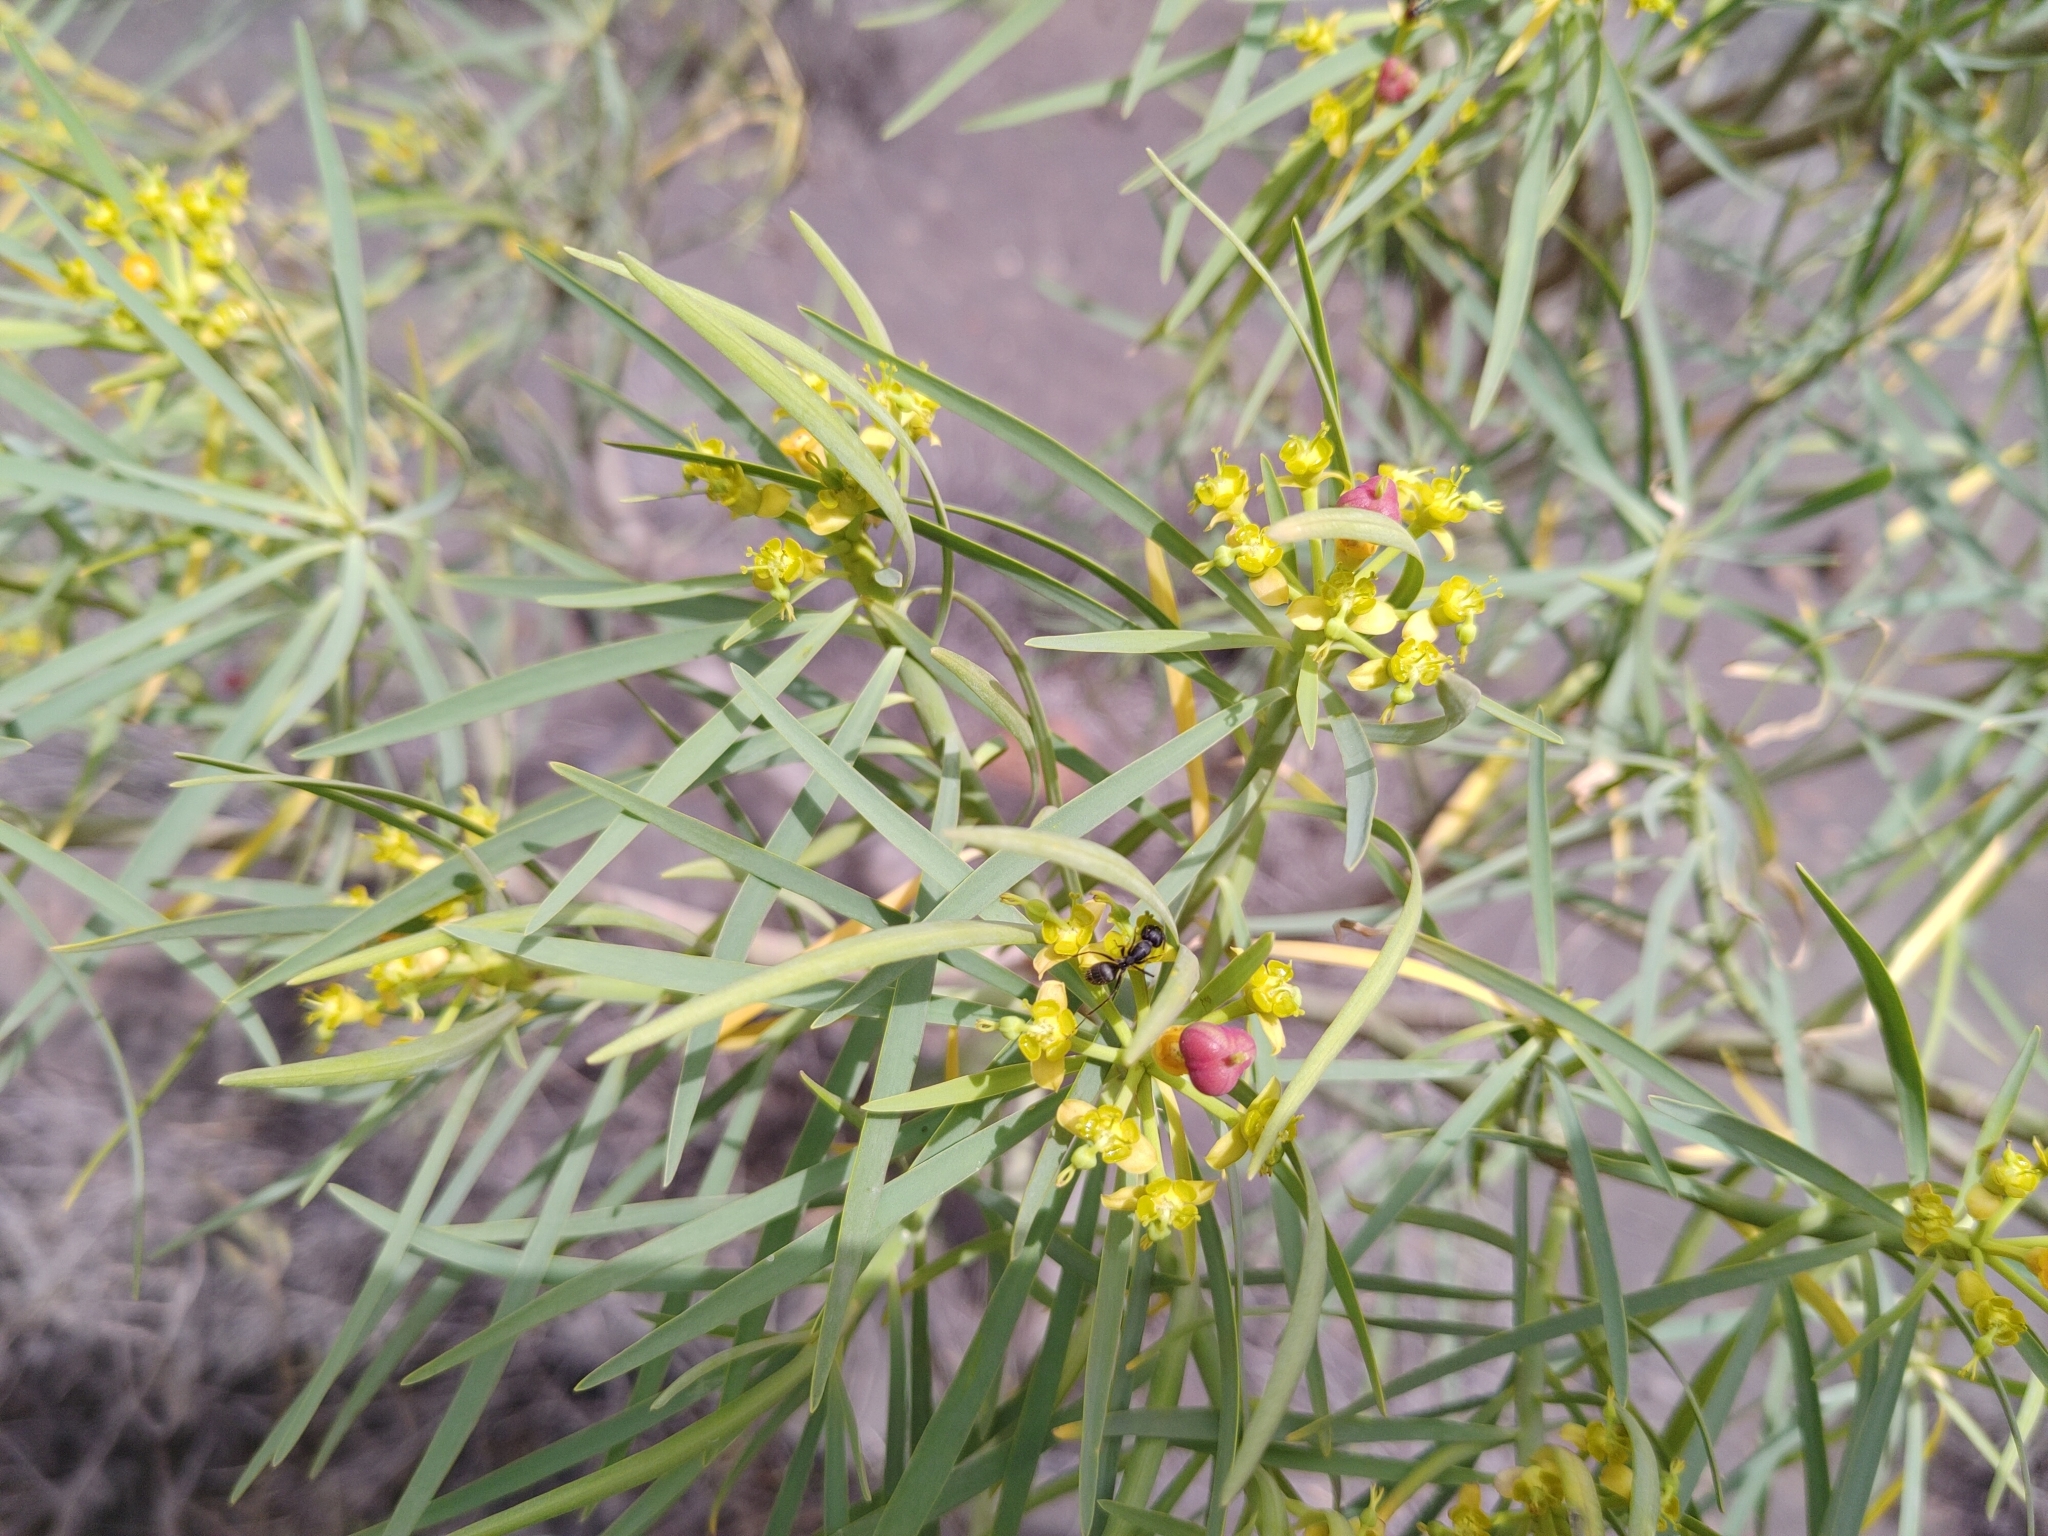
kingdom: Plantae
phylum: Tracheophyta
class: Magnoliopsida
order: Malpighiales
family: Euphorbiaceae
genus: Euphorbia
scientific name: Euphorbia lamarckii
